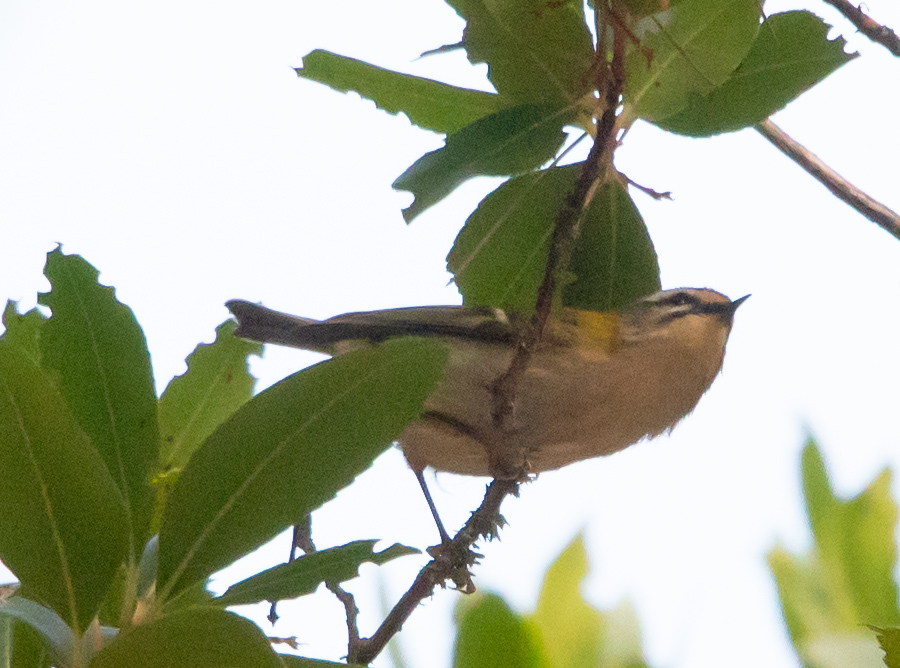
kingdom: Animalia
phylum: Chordata
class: Aves
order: Passeriformes
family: Regulidae
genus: Regulus
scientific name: Regulus ignicapilla
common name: Firecrest
